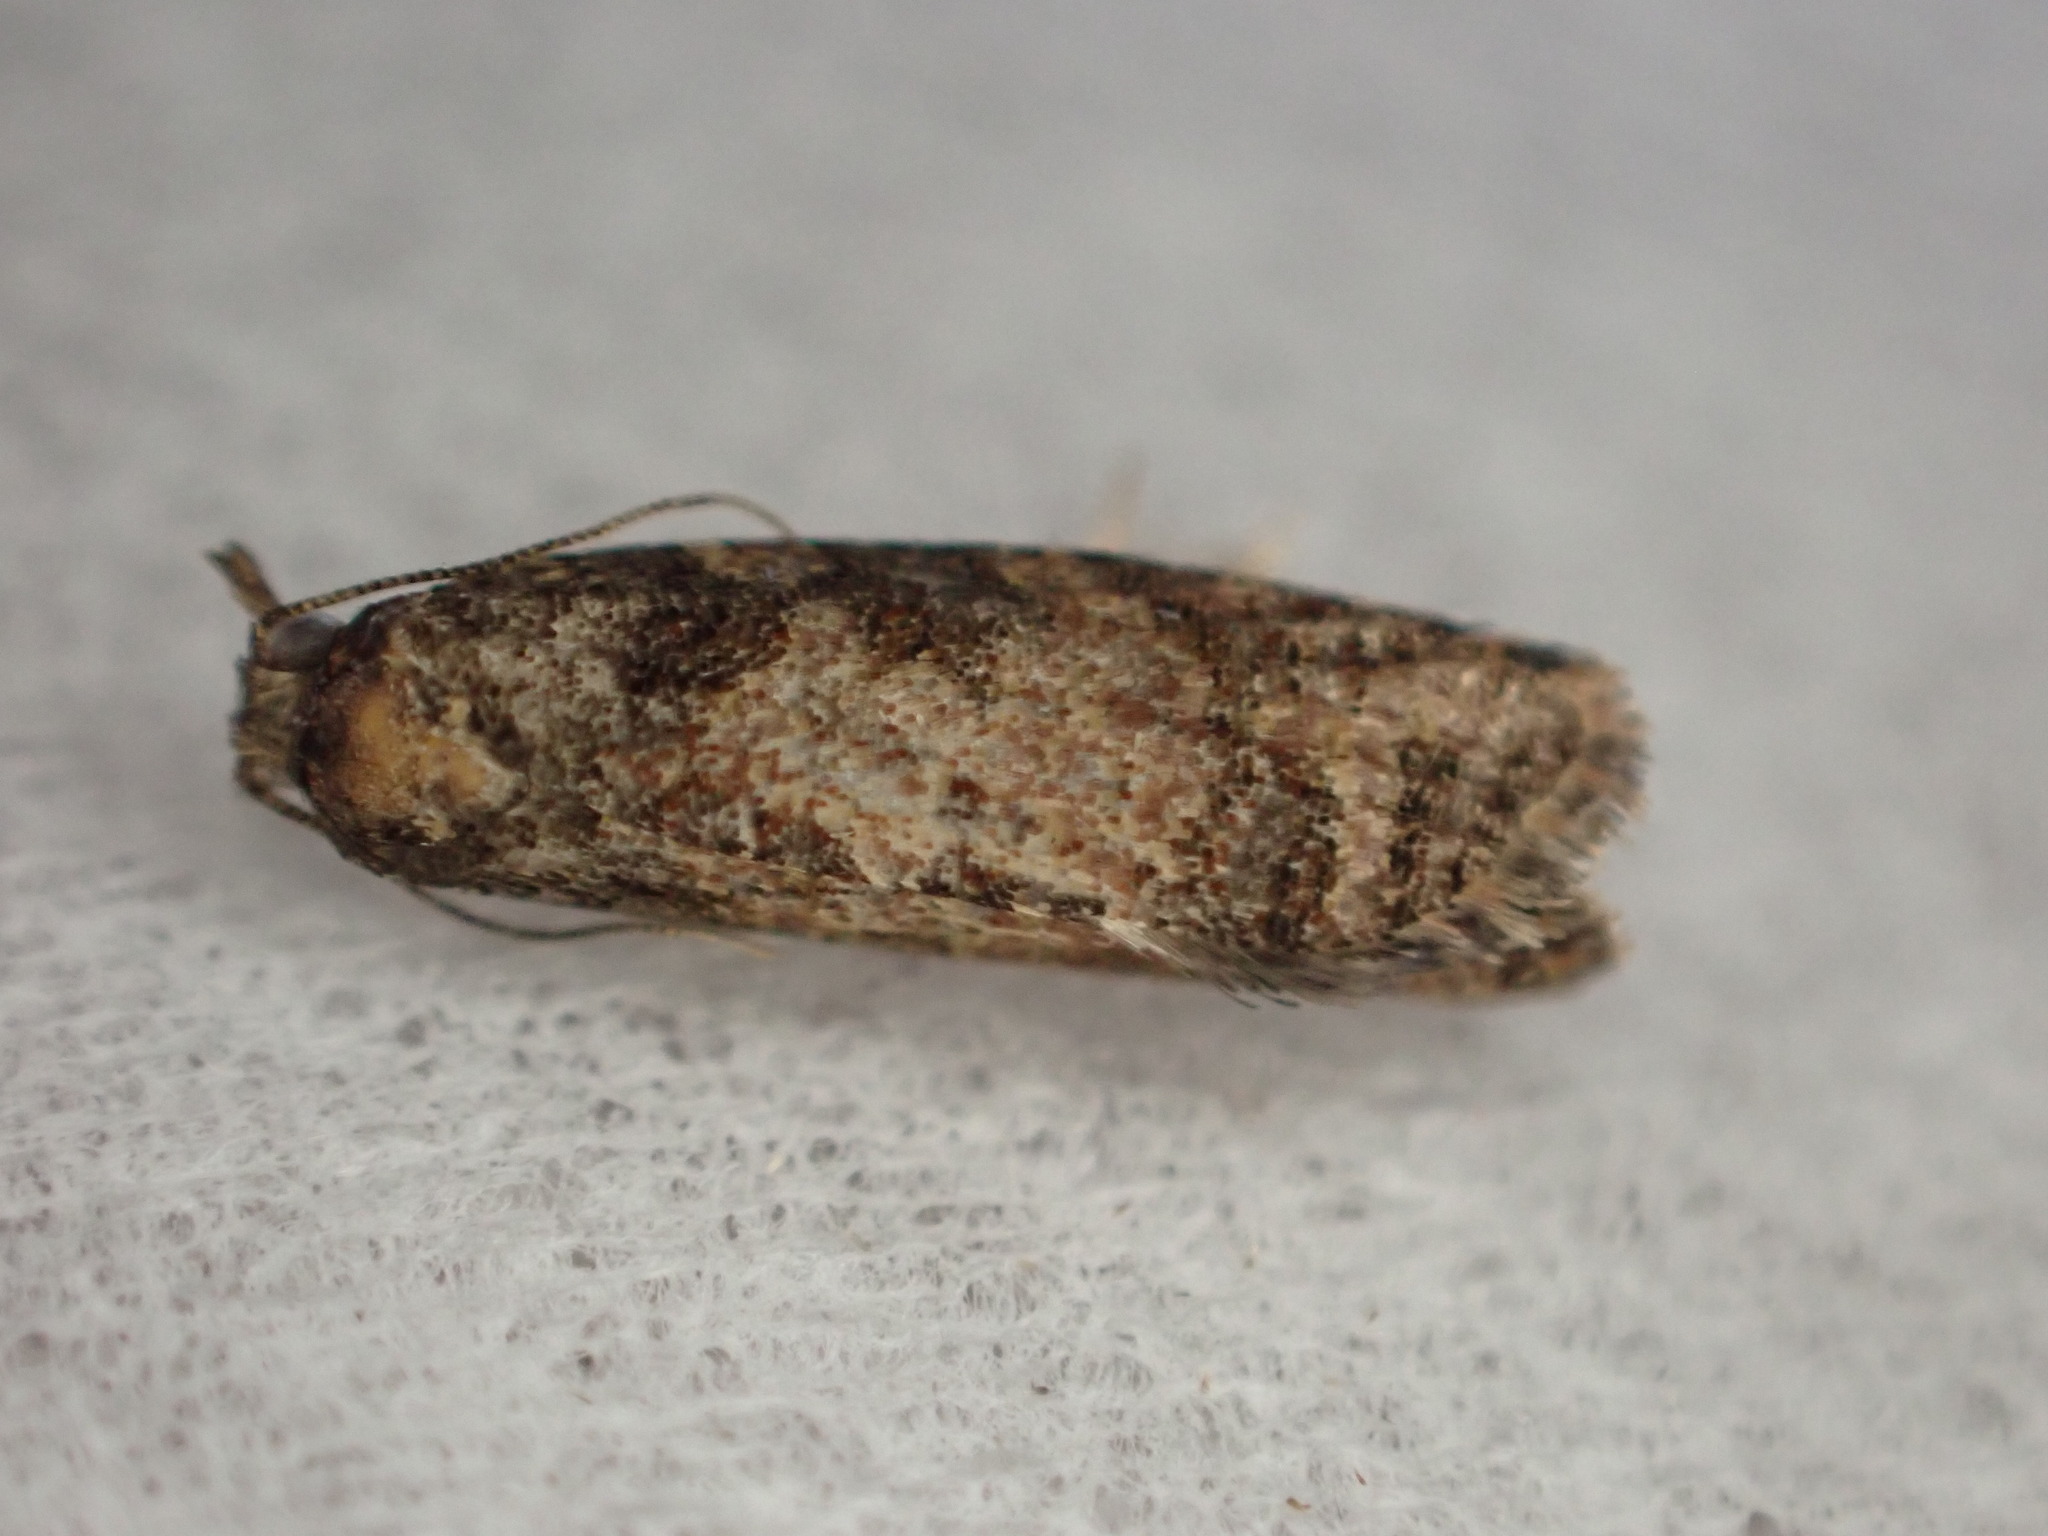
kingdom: Animalia
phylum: Arthropoda
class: Insecta
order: Lepidoptera
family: Tortricidae
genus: Capua
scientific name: Capua intractana
